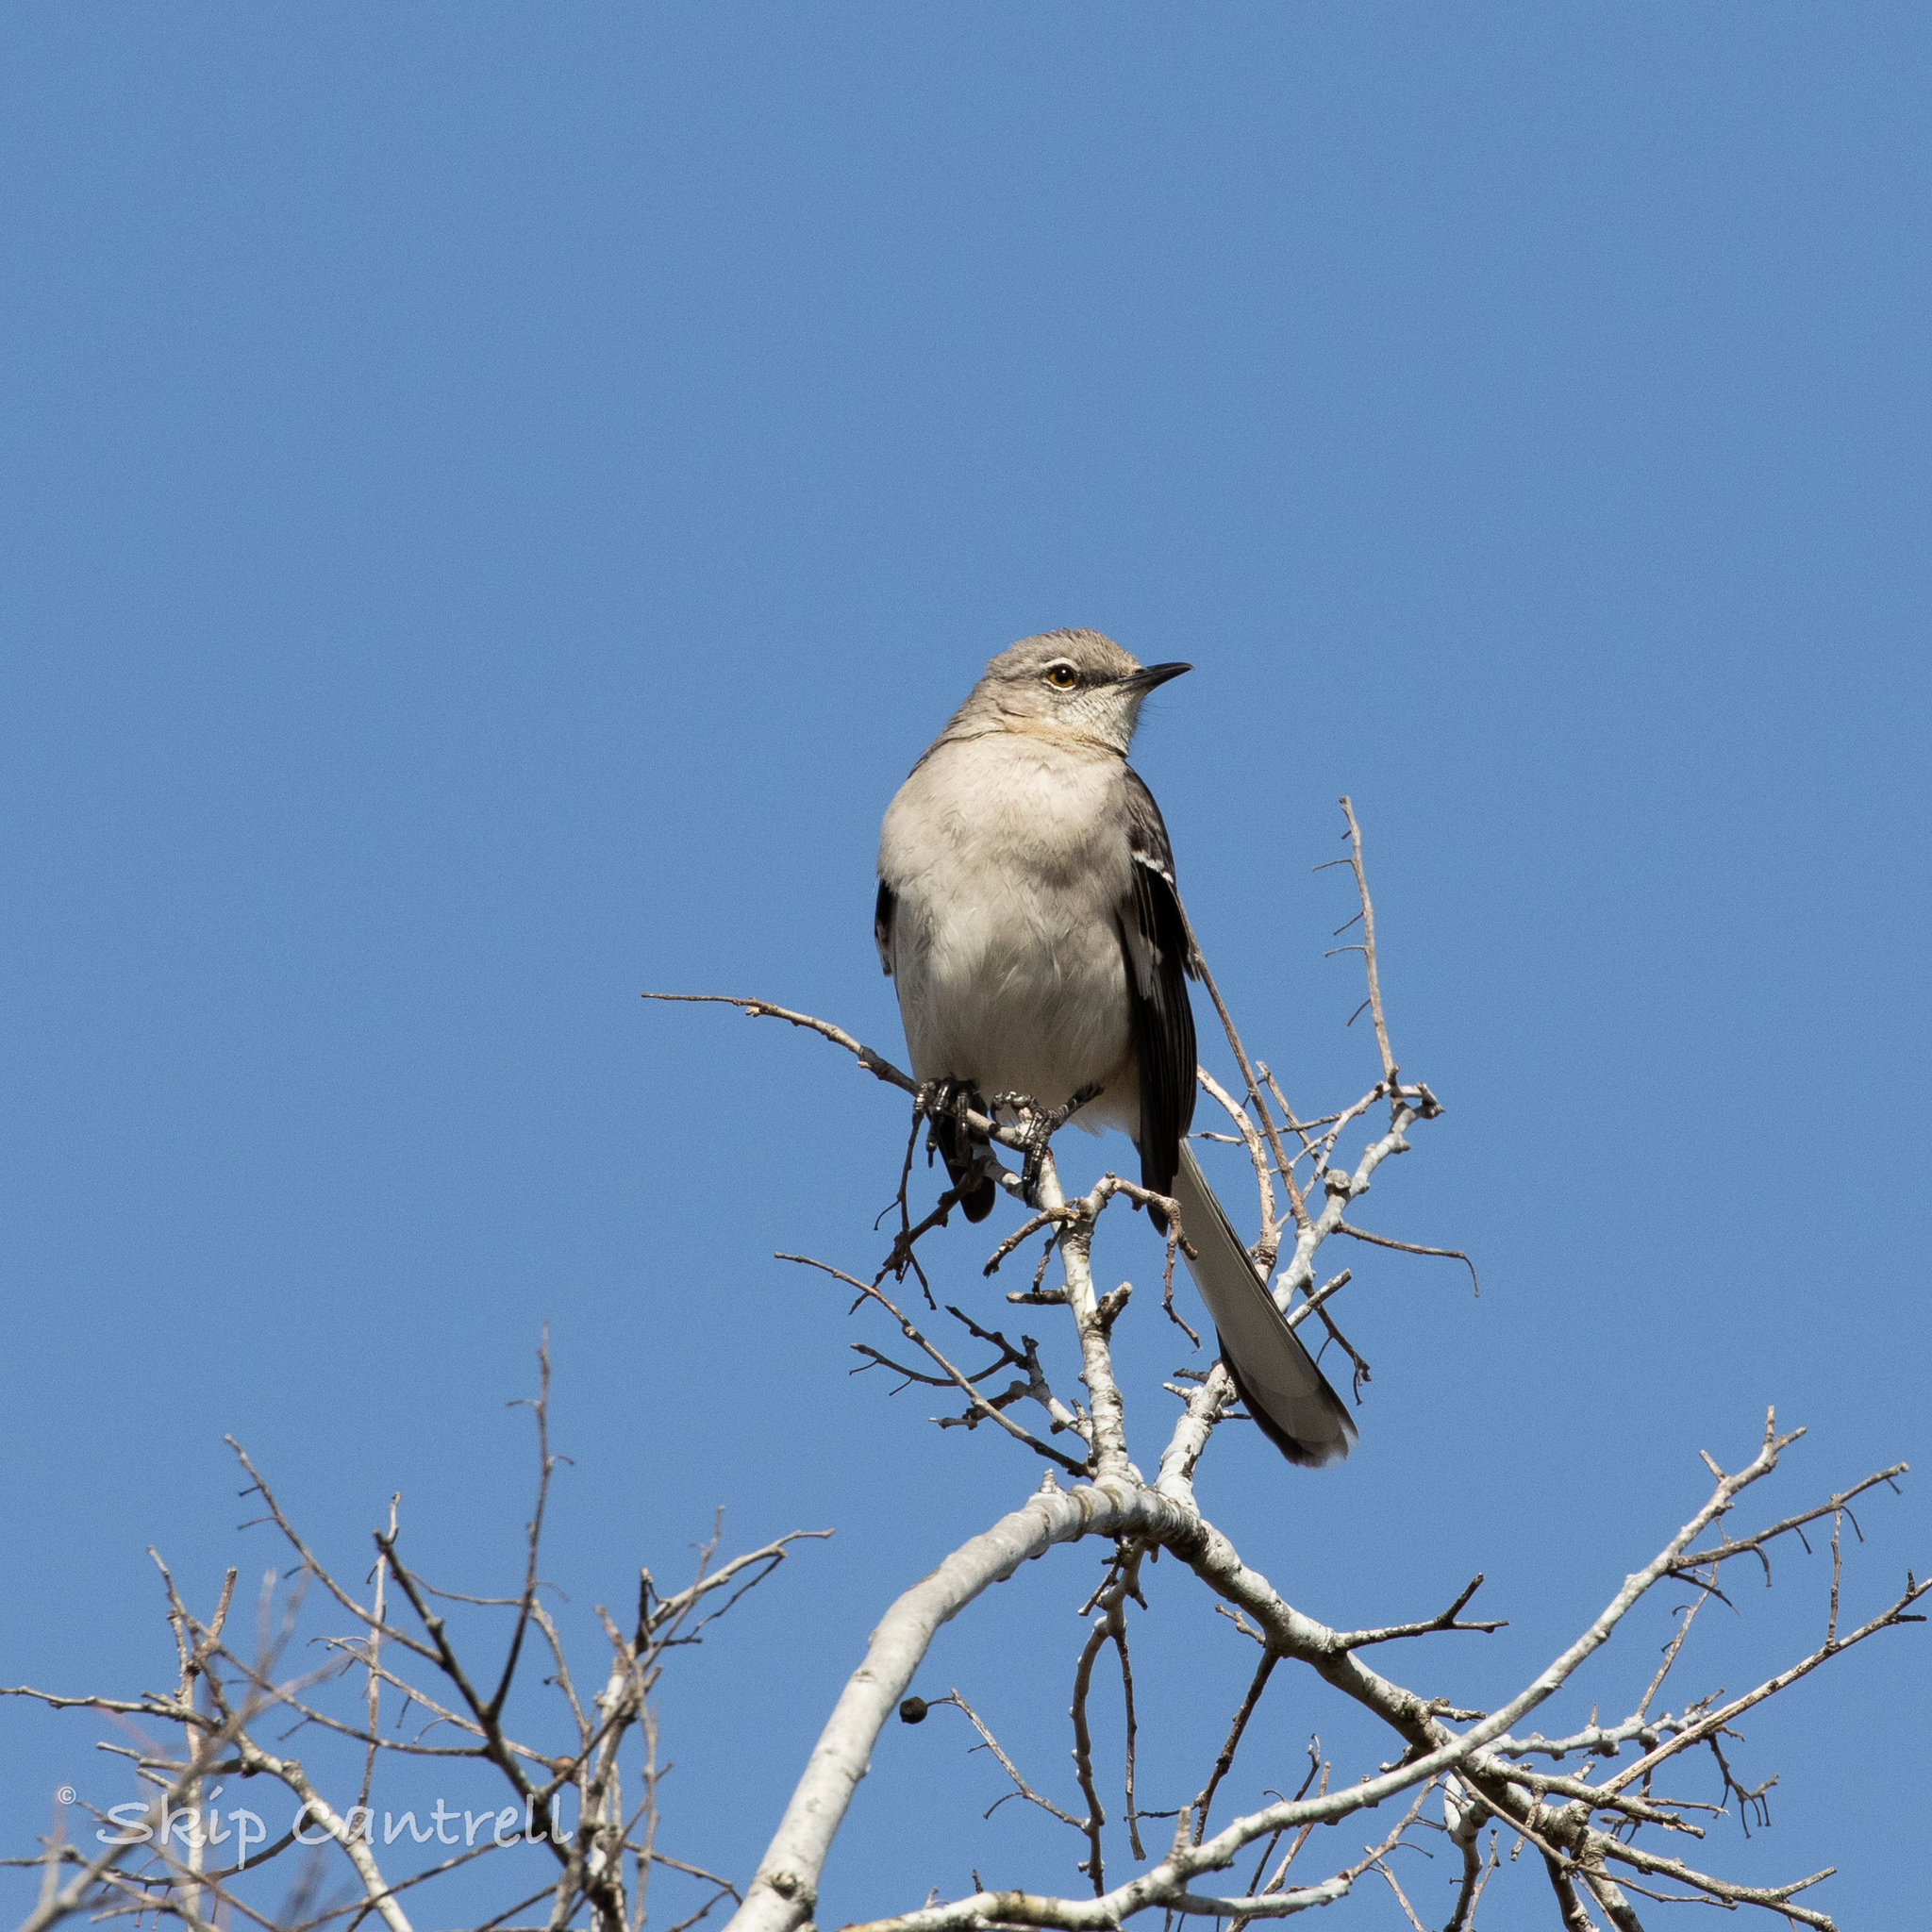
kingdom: Animalia
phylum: Chordata
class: Aves
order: Passeriformes
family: Mimidae
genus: Mimus
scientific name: Mimus polyglottos
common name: Northern mockingbird
